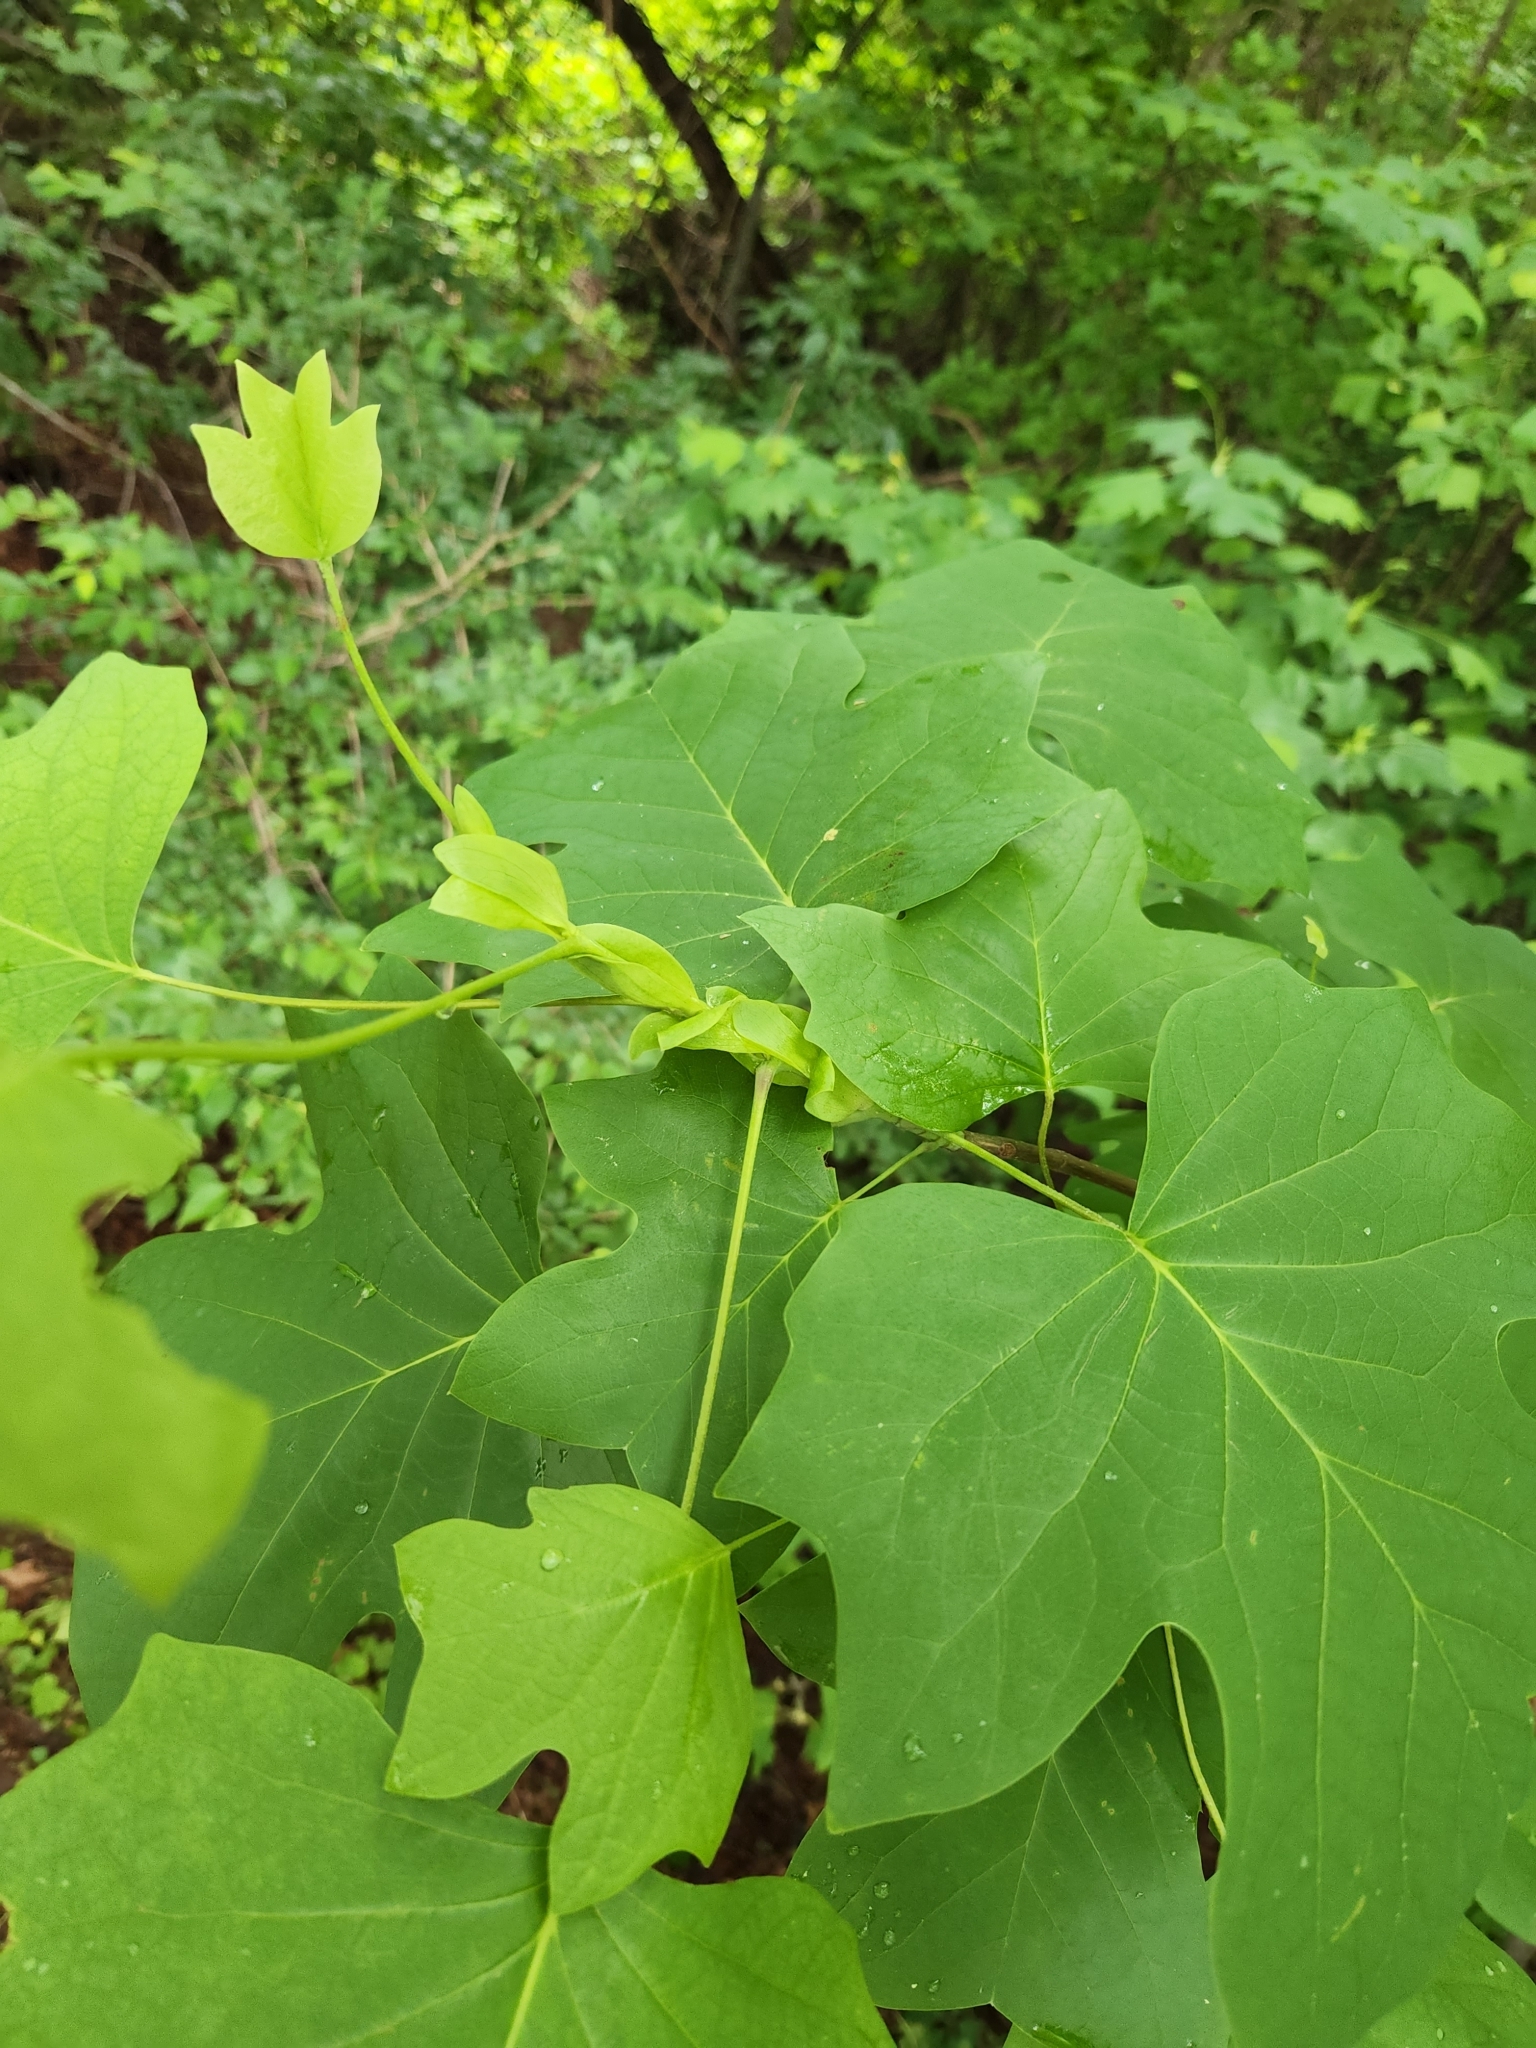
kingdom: Plantae
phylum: Tracheophyta
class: Magnoliopsida
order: Magnoliales
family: Magnoliaceae
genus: Liriodendron
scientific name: Liriodendron tulipifera
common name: Tulip tree
